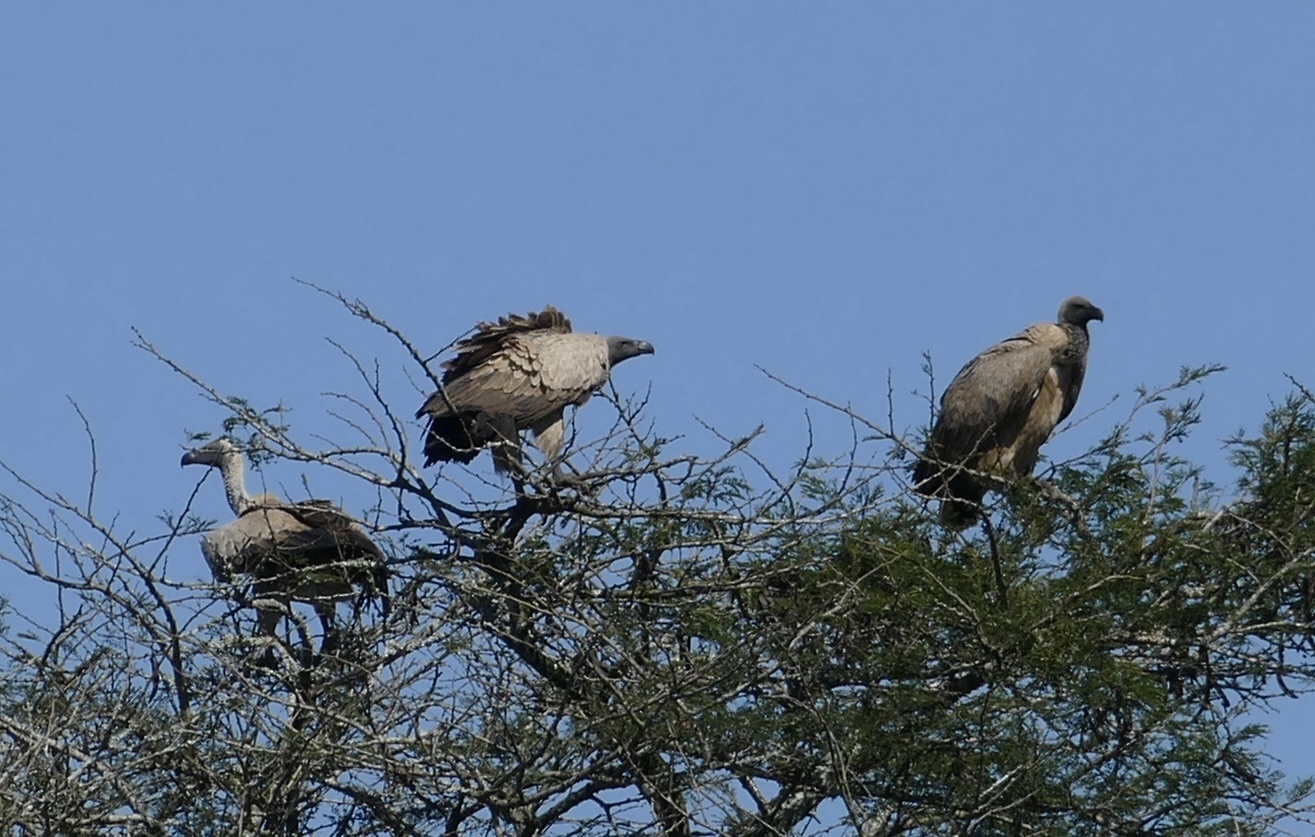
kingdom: Animalia
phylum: Chordata
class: Aves
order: Accipitriformes
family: Accipitridae
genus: Gyps
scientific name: Gyps africanus
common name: White-backed vulture
